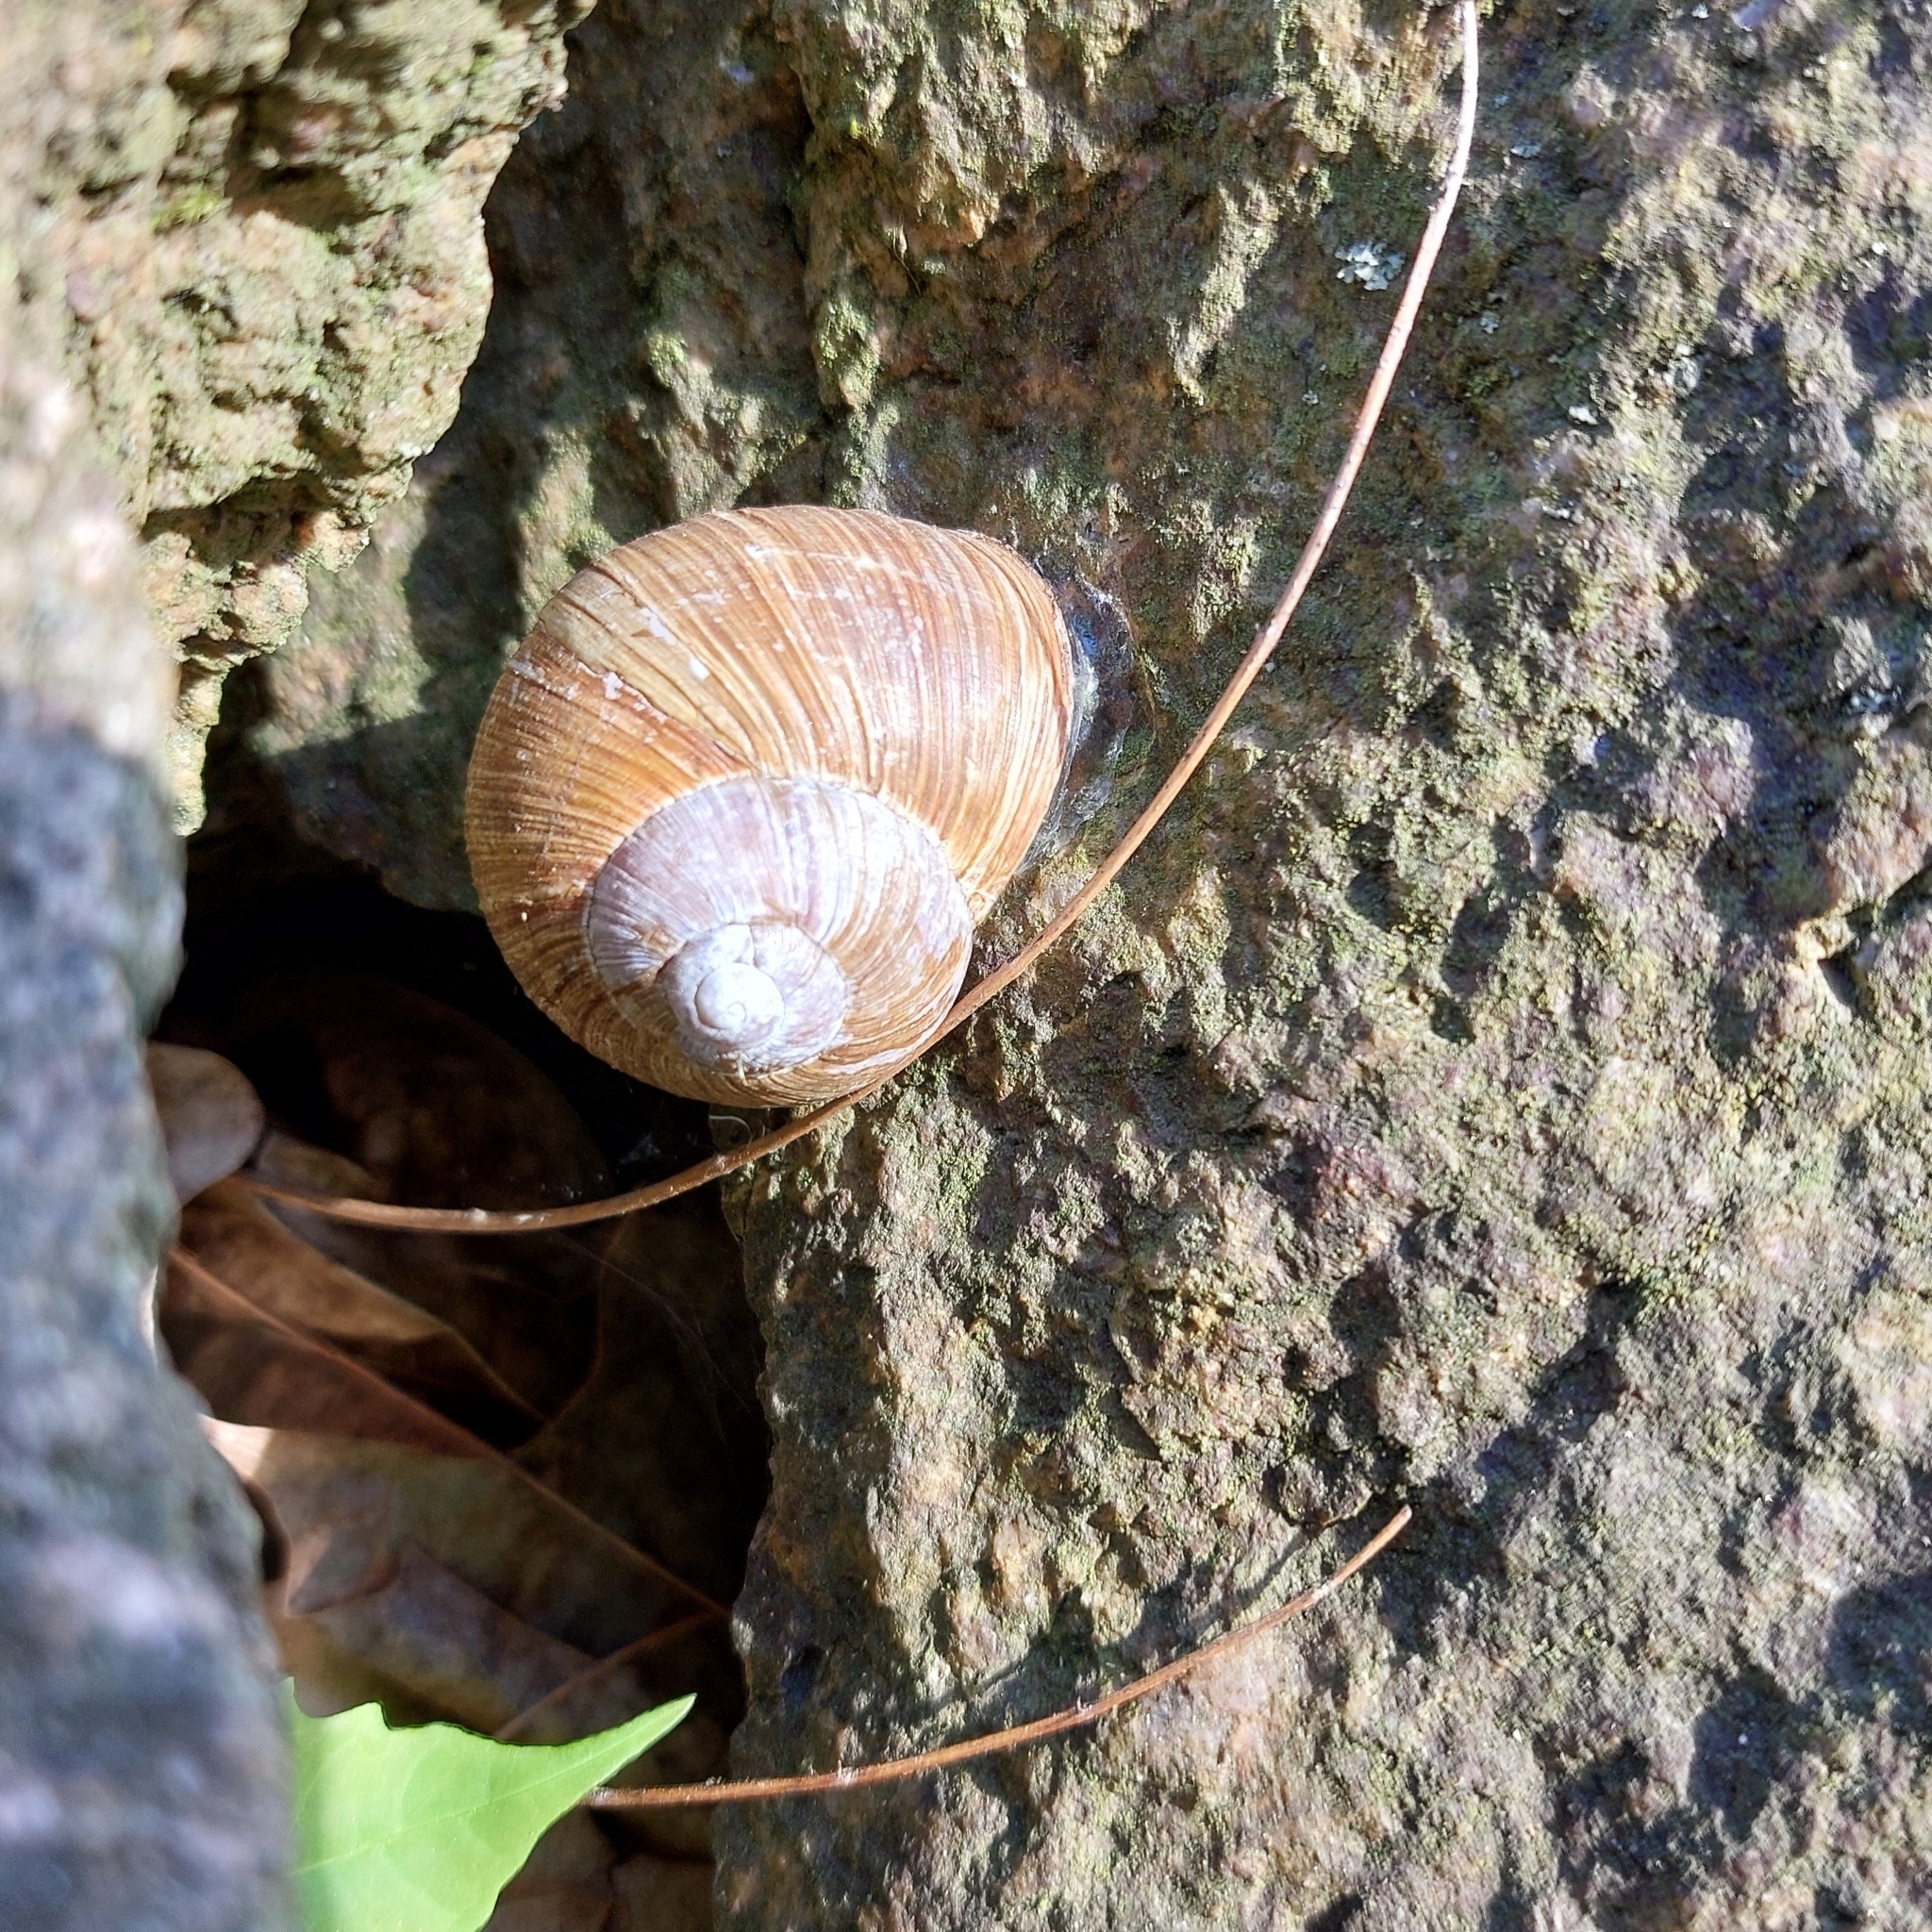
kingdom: Animalia
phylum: Mollusca
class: Gastropoda
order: Stylommatophora
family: Helicidae
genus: Helix
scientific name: Helix pomatia
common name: Roman snail
